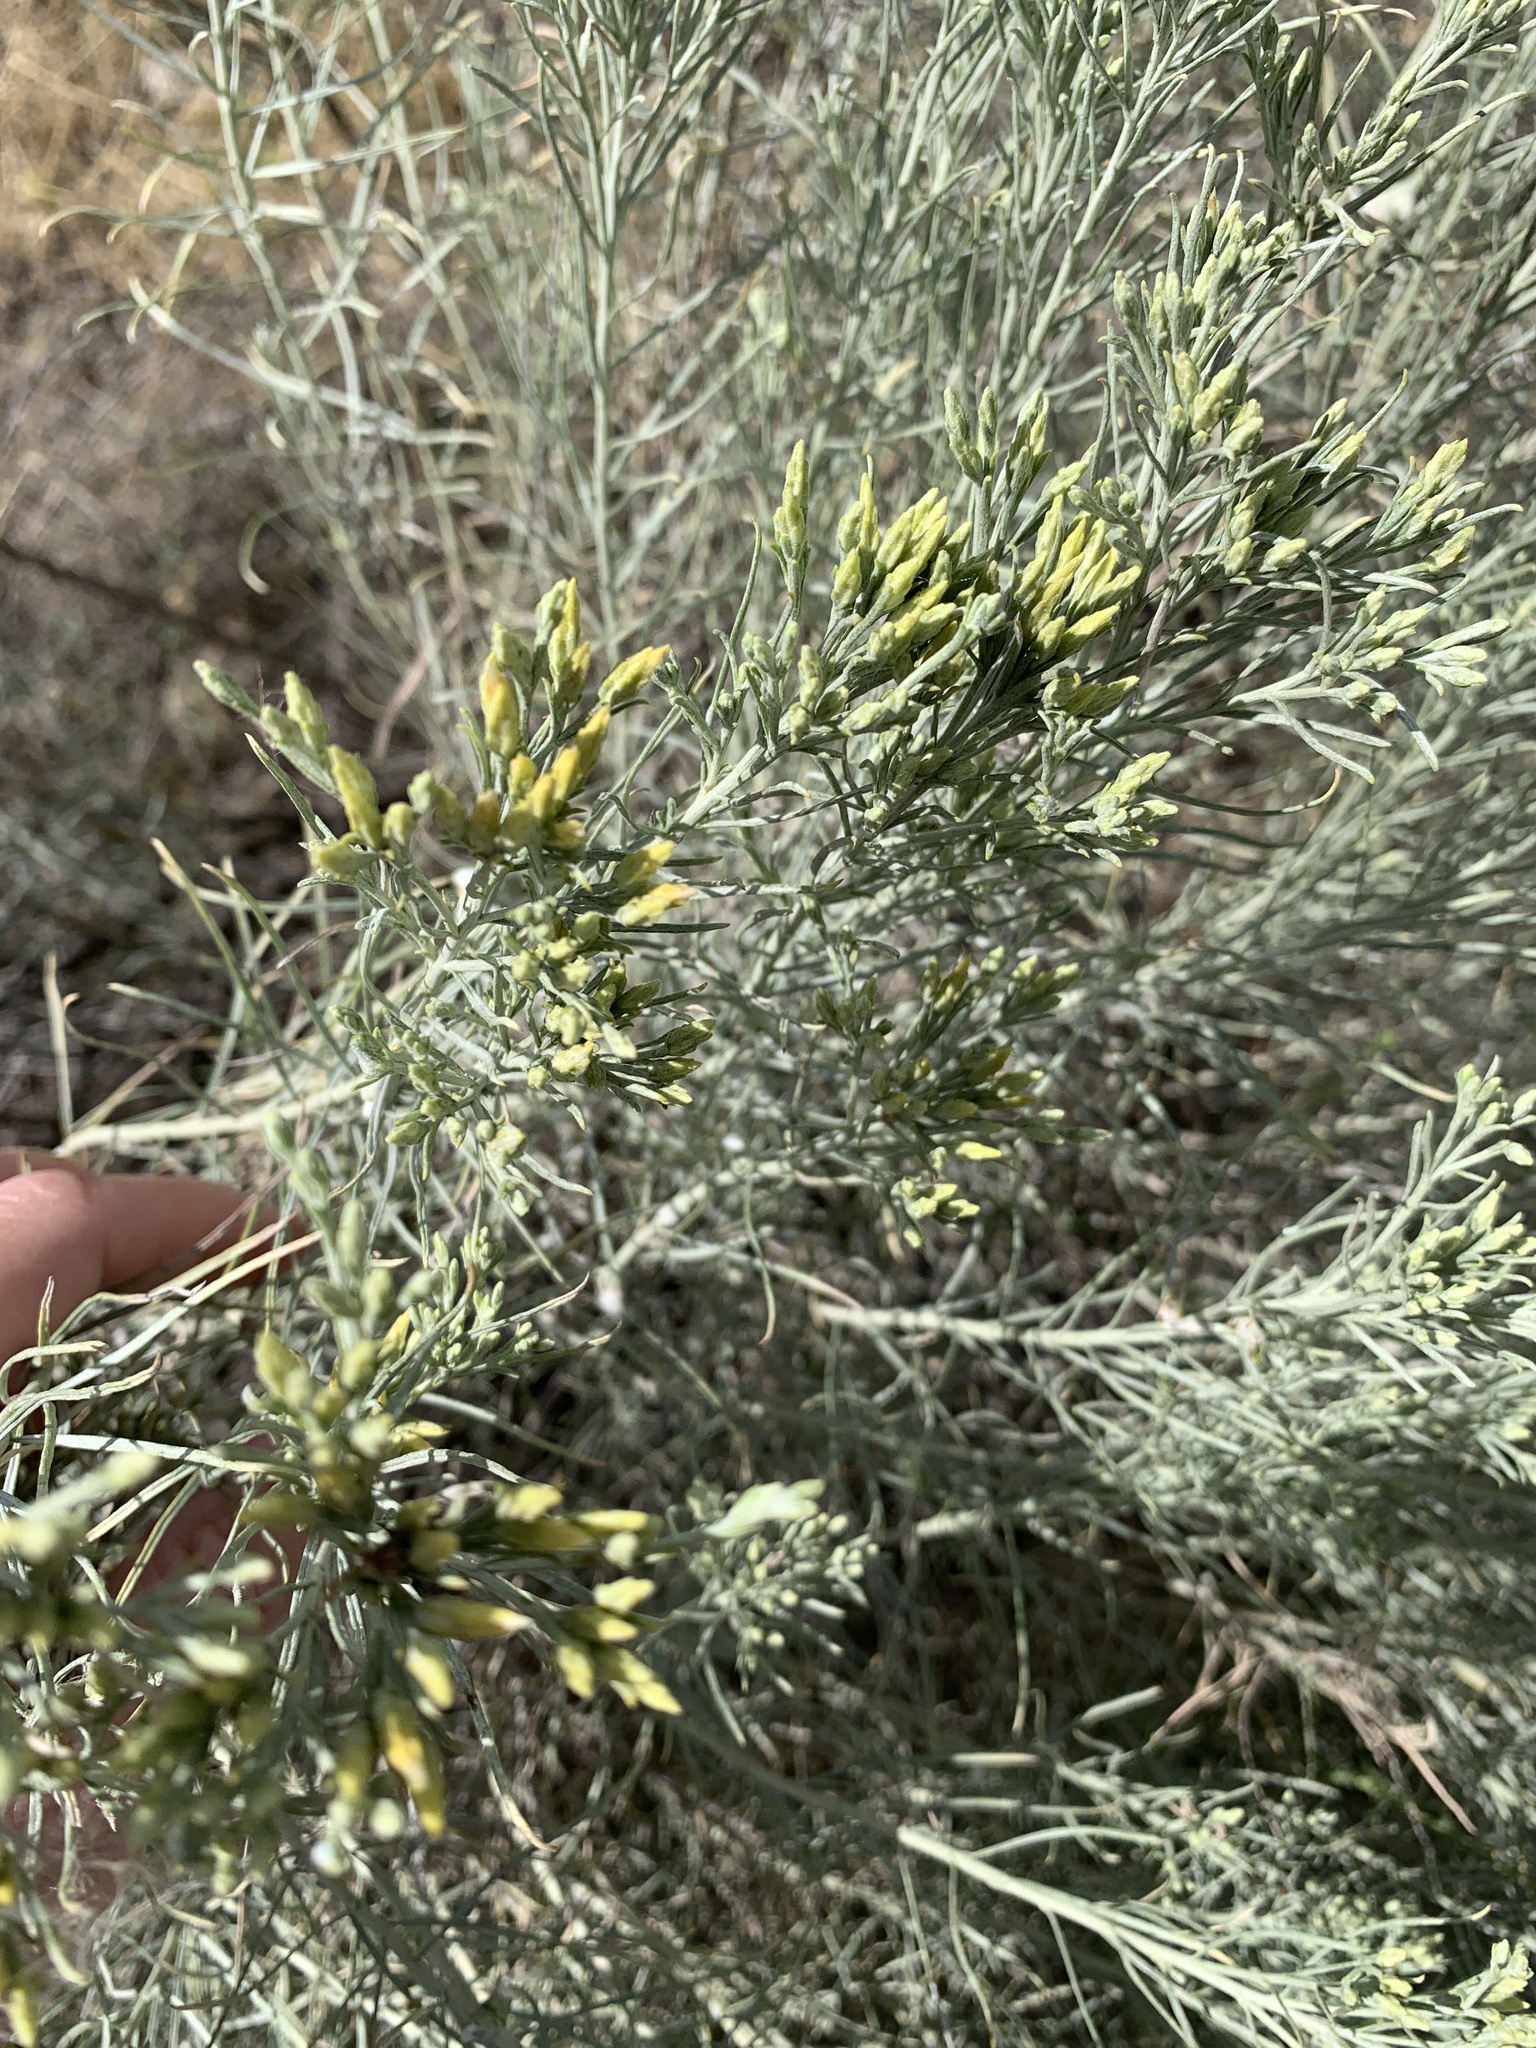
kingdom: Plantae
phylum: Tracheophyta
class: Magnoliopsida
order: Asterales
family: Asteraceae
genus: Ericameria
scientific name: Ericameria nauseosa
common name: Rubber rabbitbrush
